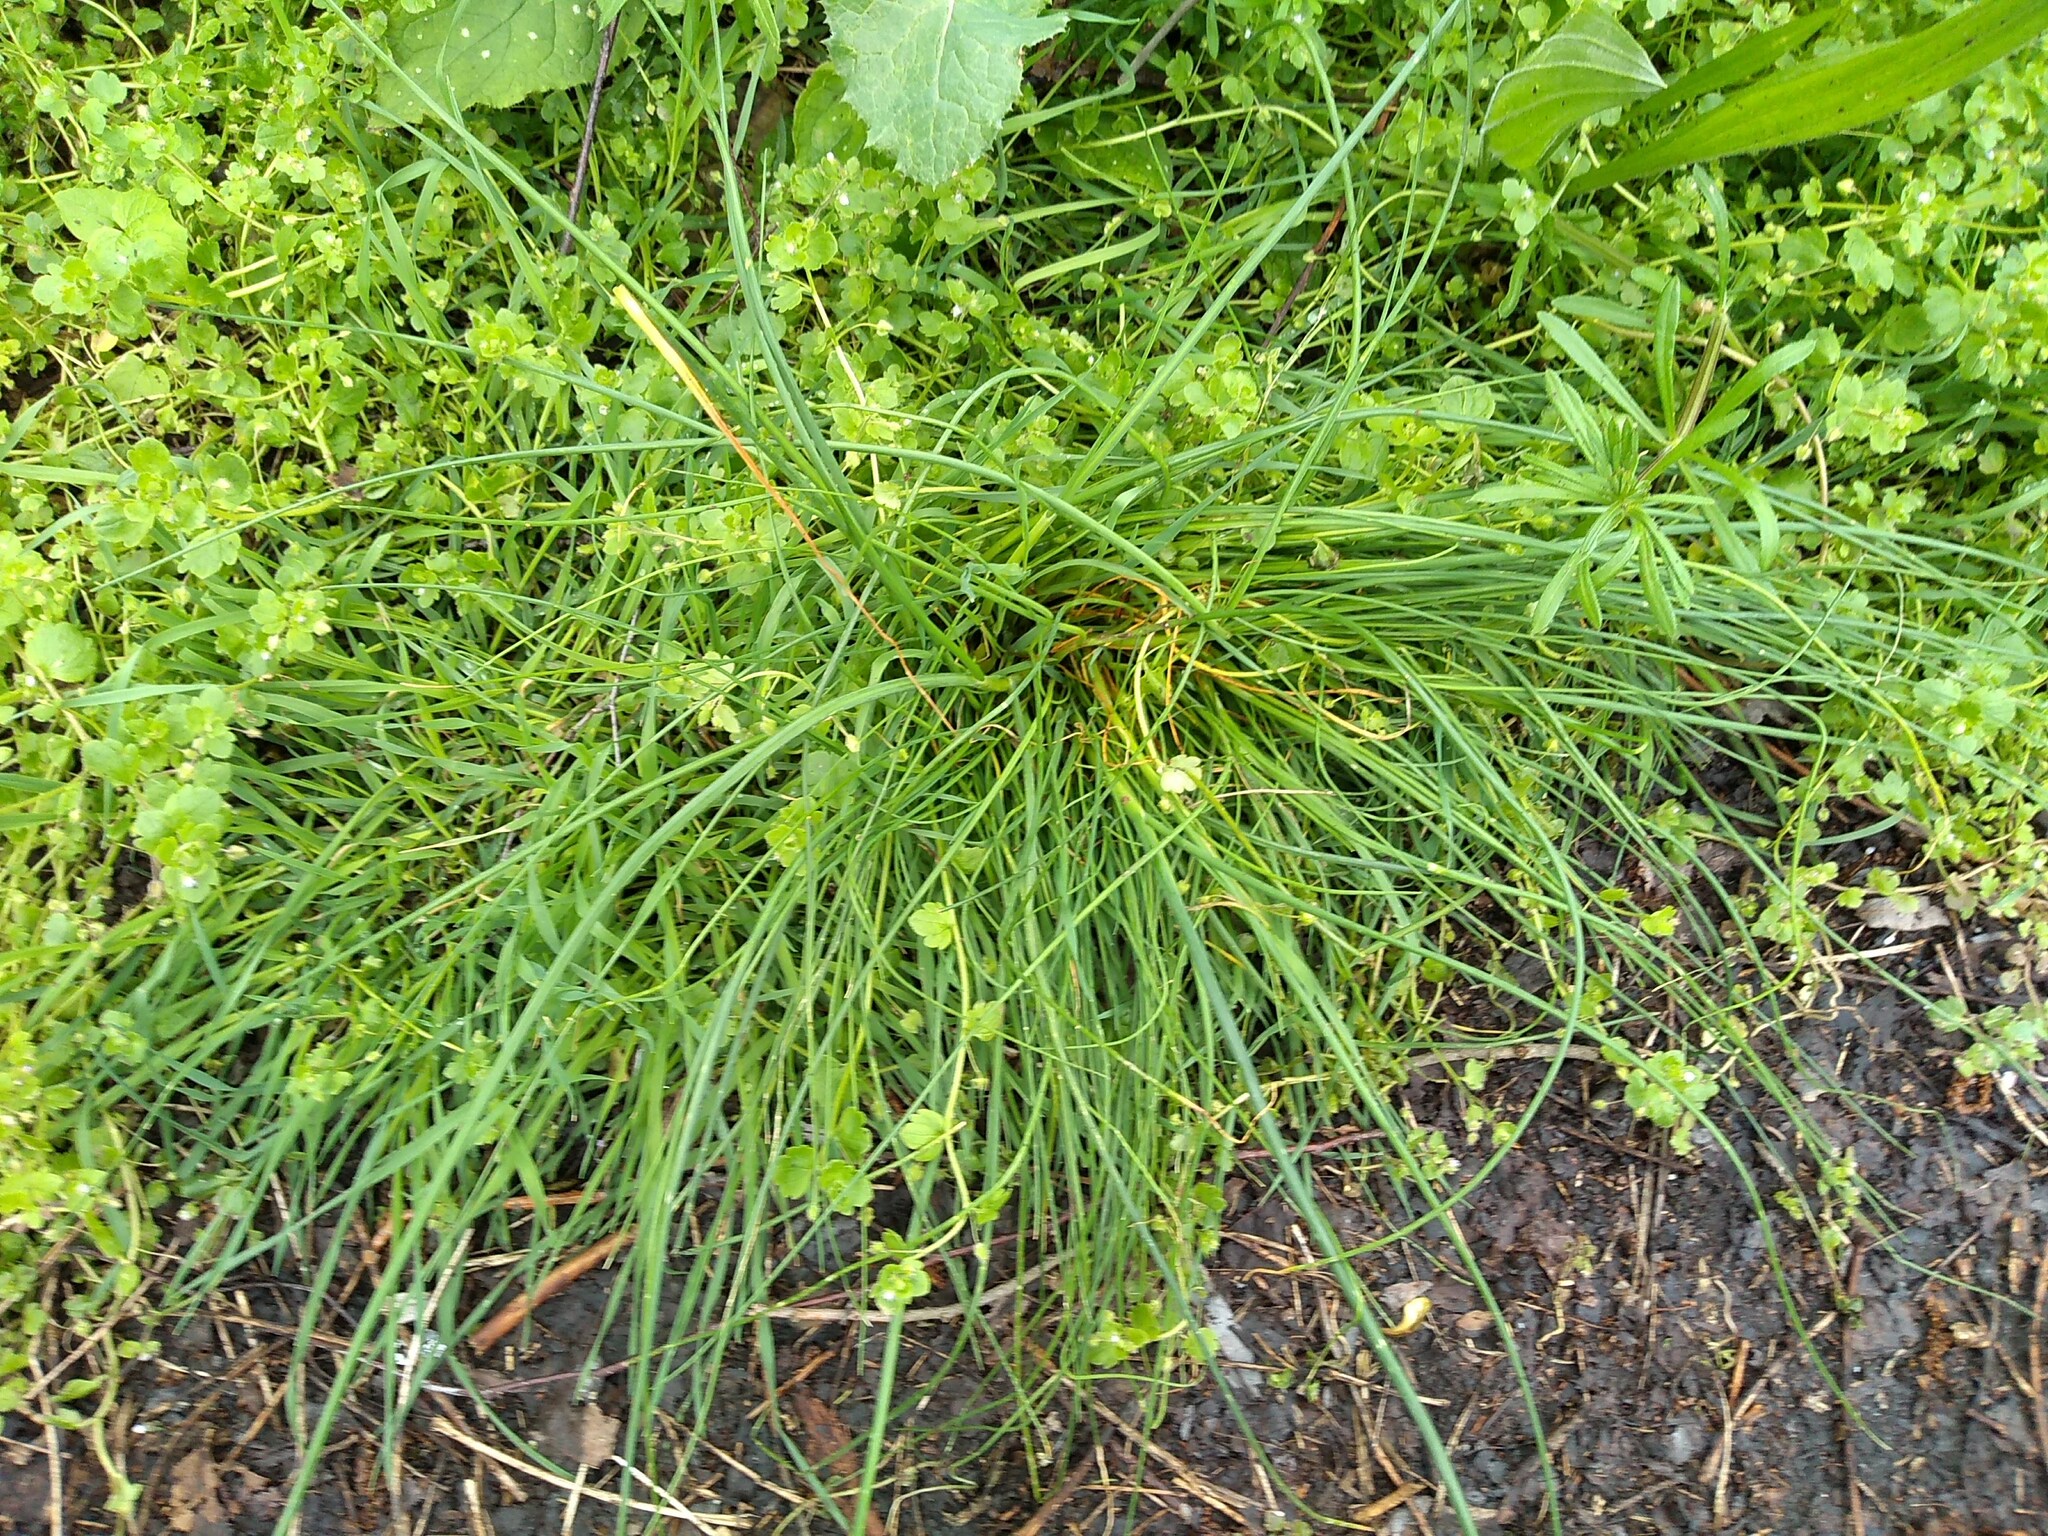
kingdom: Plantae
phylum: Tracheophyta
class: Liliopsida
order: Asparagales
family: Amaryllidaceae
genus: Allium
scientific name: Allium schoenoprasum
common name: Chives
